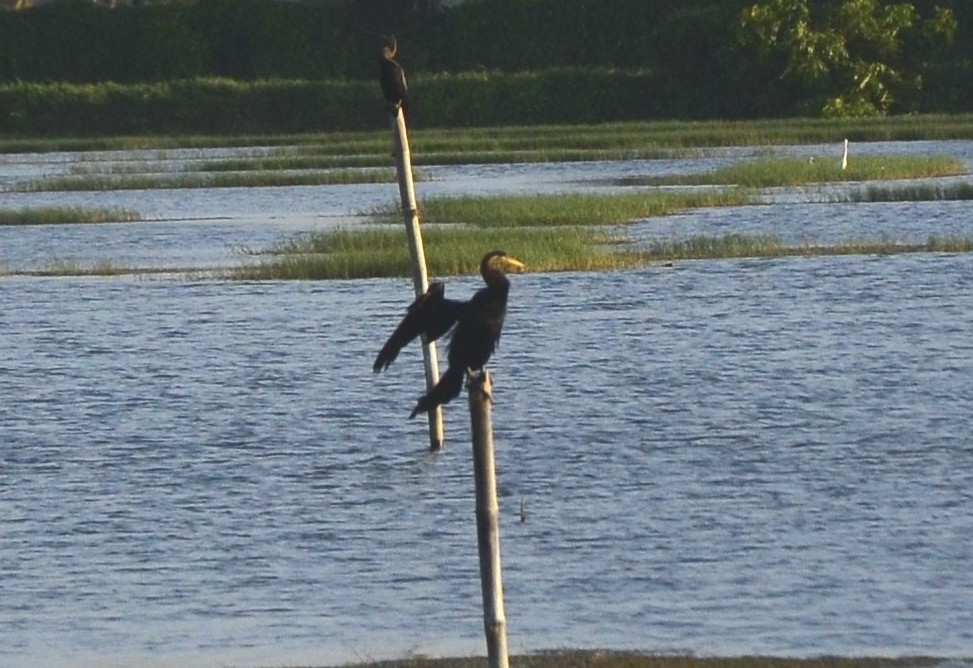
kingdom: Animalia
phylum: Chordata
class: Aves
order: Suliformes
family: Anhingidae
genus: Anhinga
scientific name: Anhinga melanogaster
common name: Oriental darter
